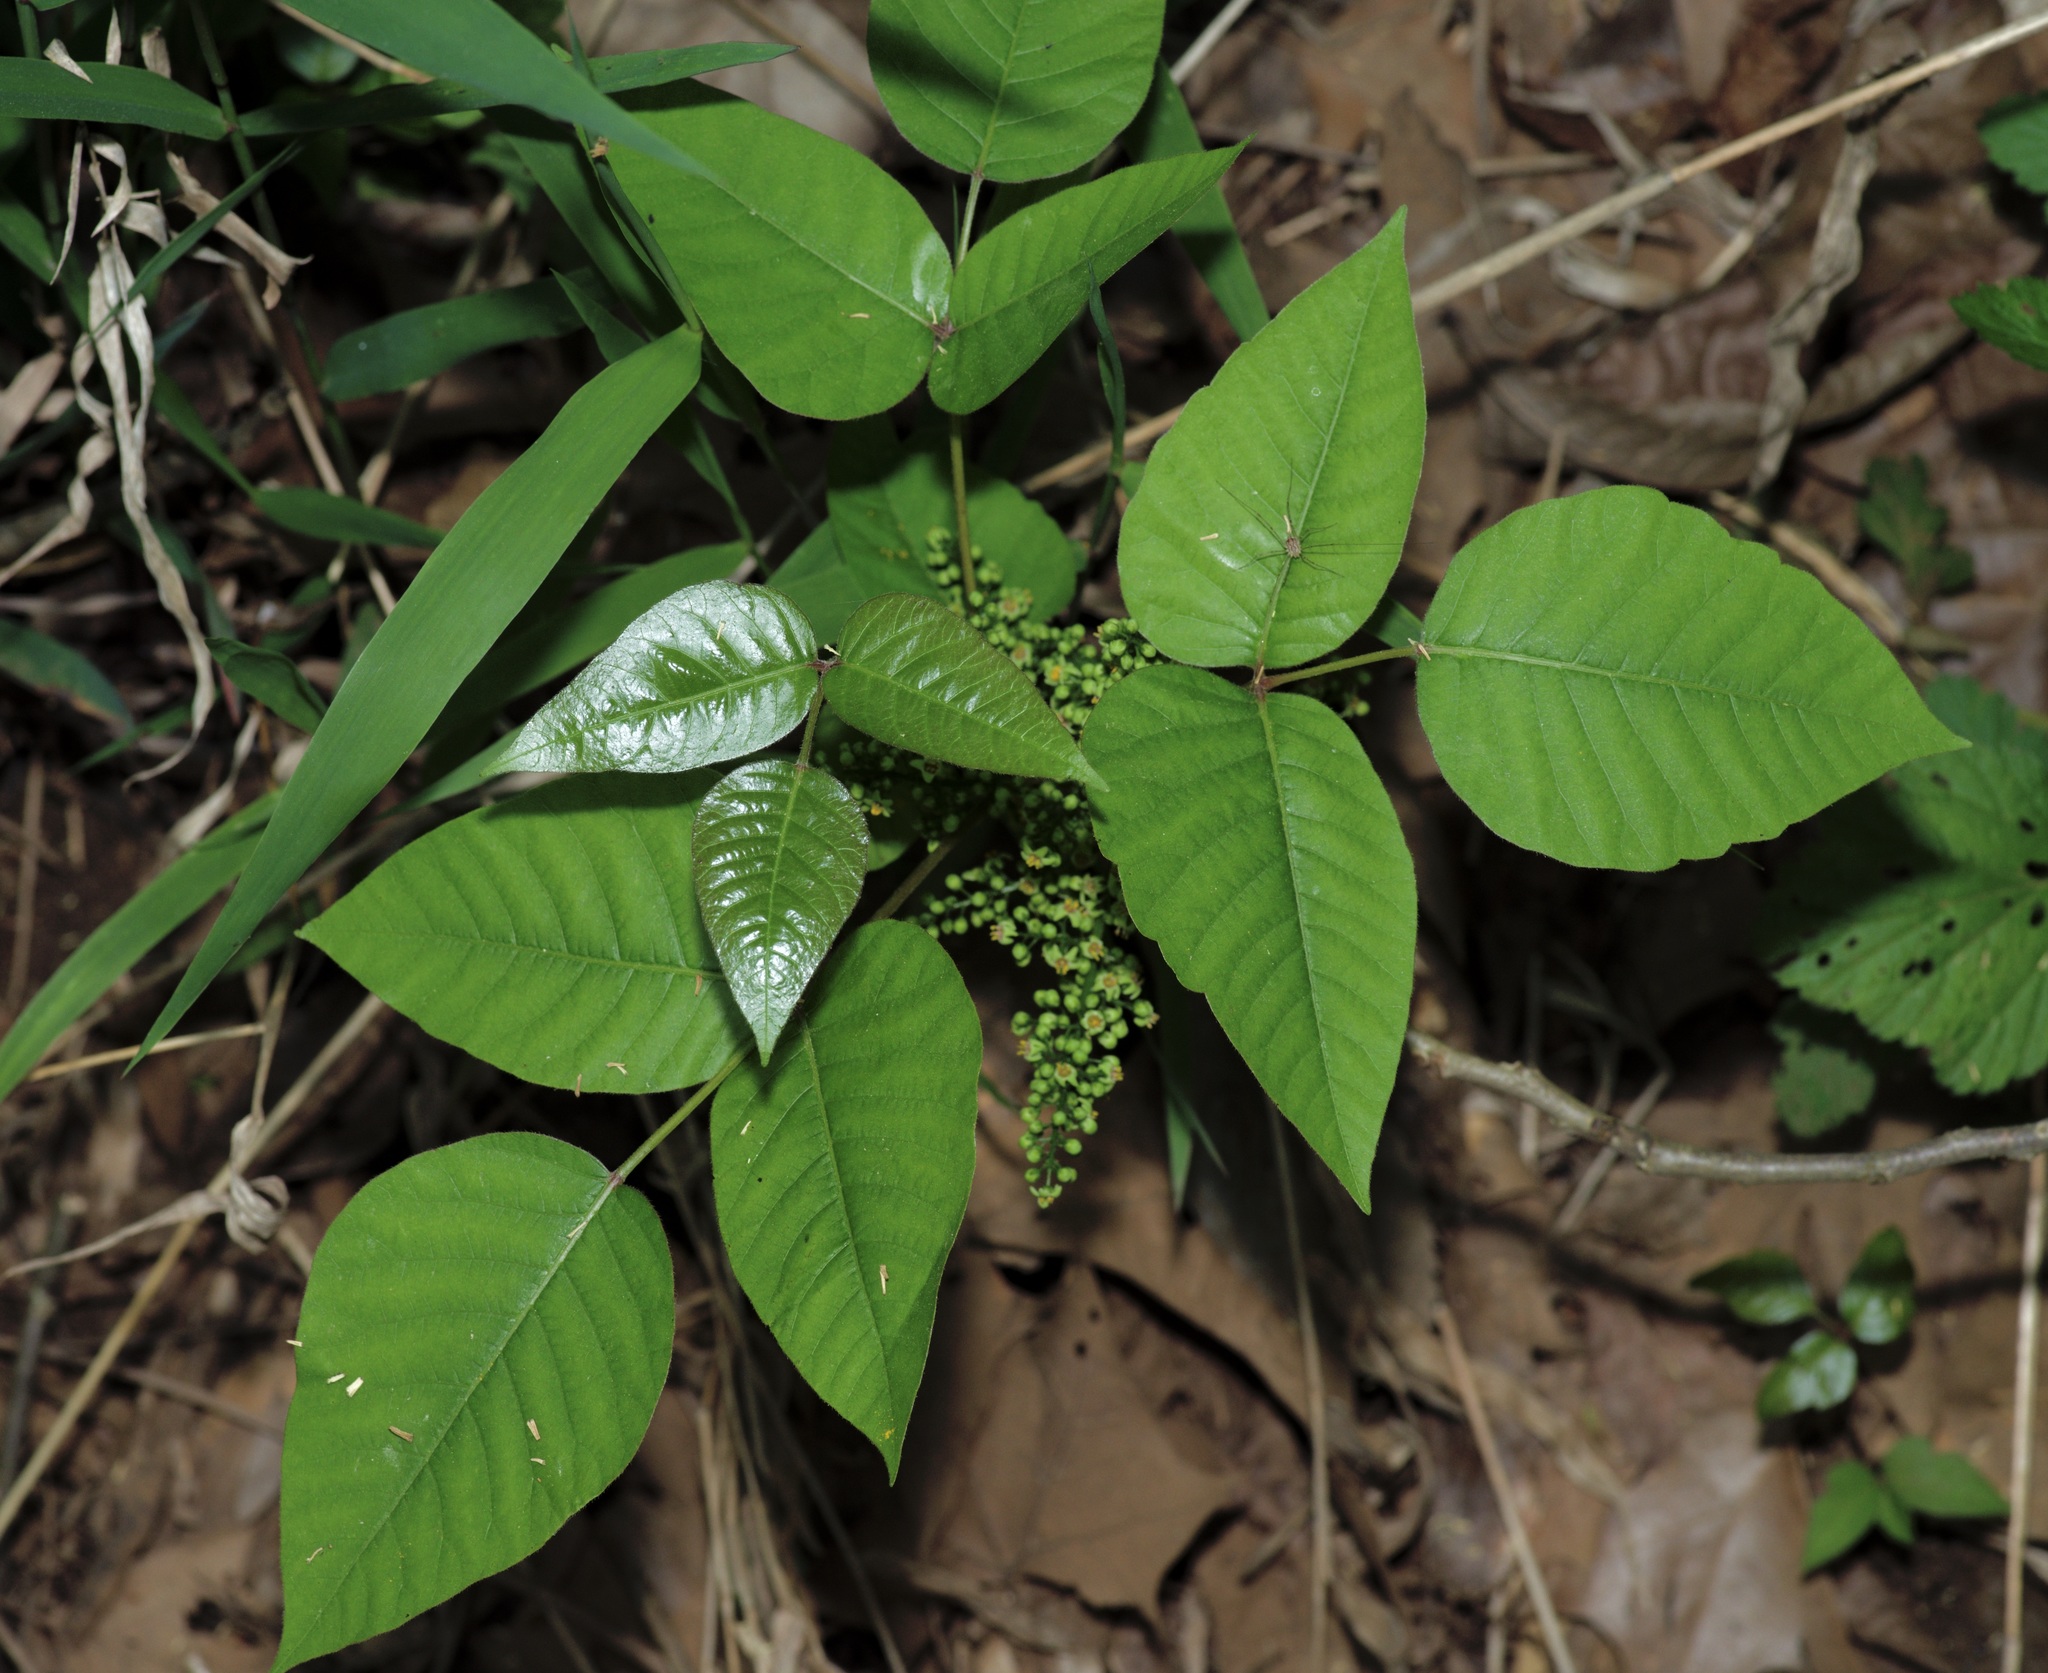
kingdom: Plantae
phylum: Tracheophyta
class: Magnoliopsida
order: Sapindales
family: Anacardiaceae
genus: Toxicodendron
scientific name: Toxicodendron radicans
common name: Poison ivy
